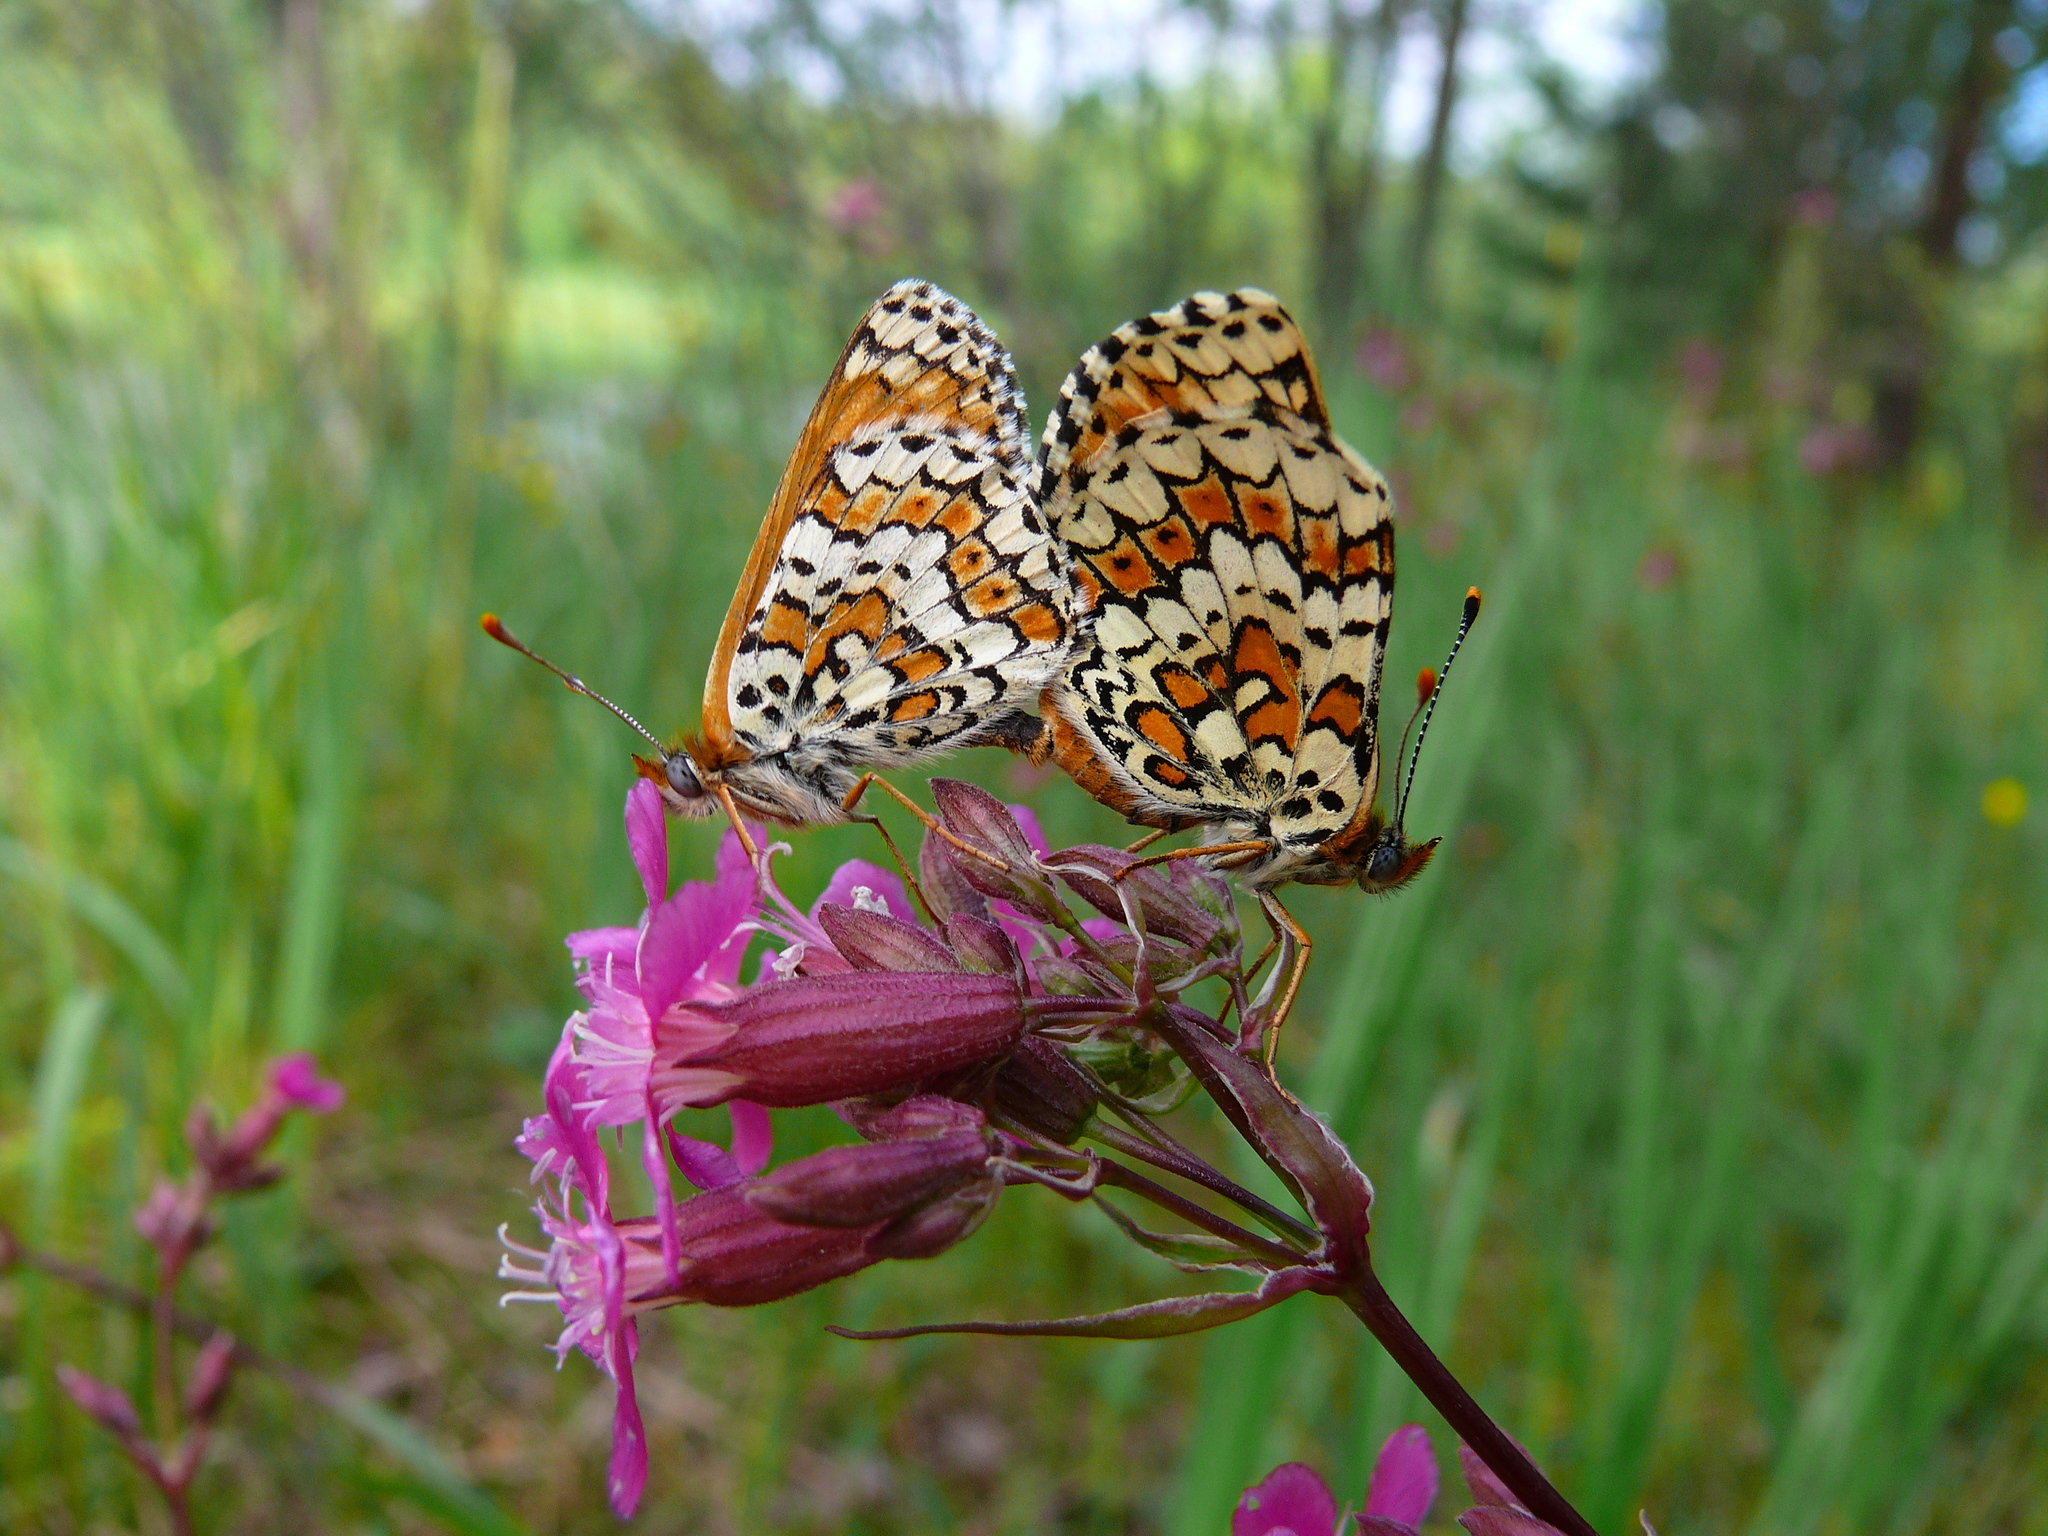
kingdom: Animalia
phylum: Arthropoda
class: Insecta
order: Lepidoptera
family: Nymphalidae
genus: Melitaea
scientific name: Melitaea cinxia
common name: Glanville fritillary
